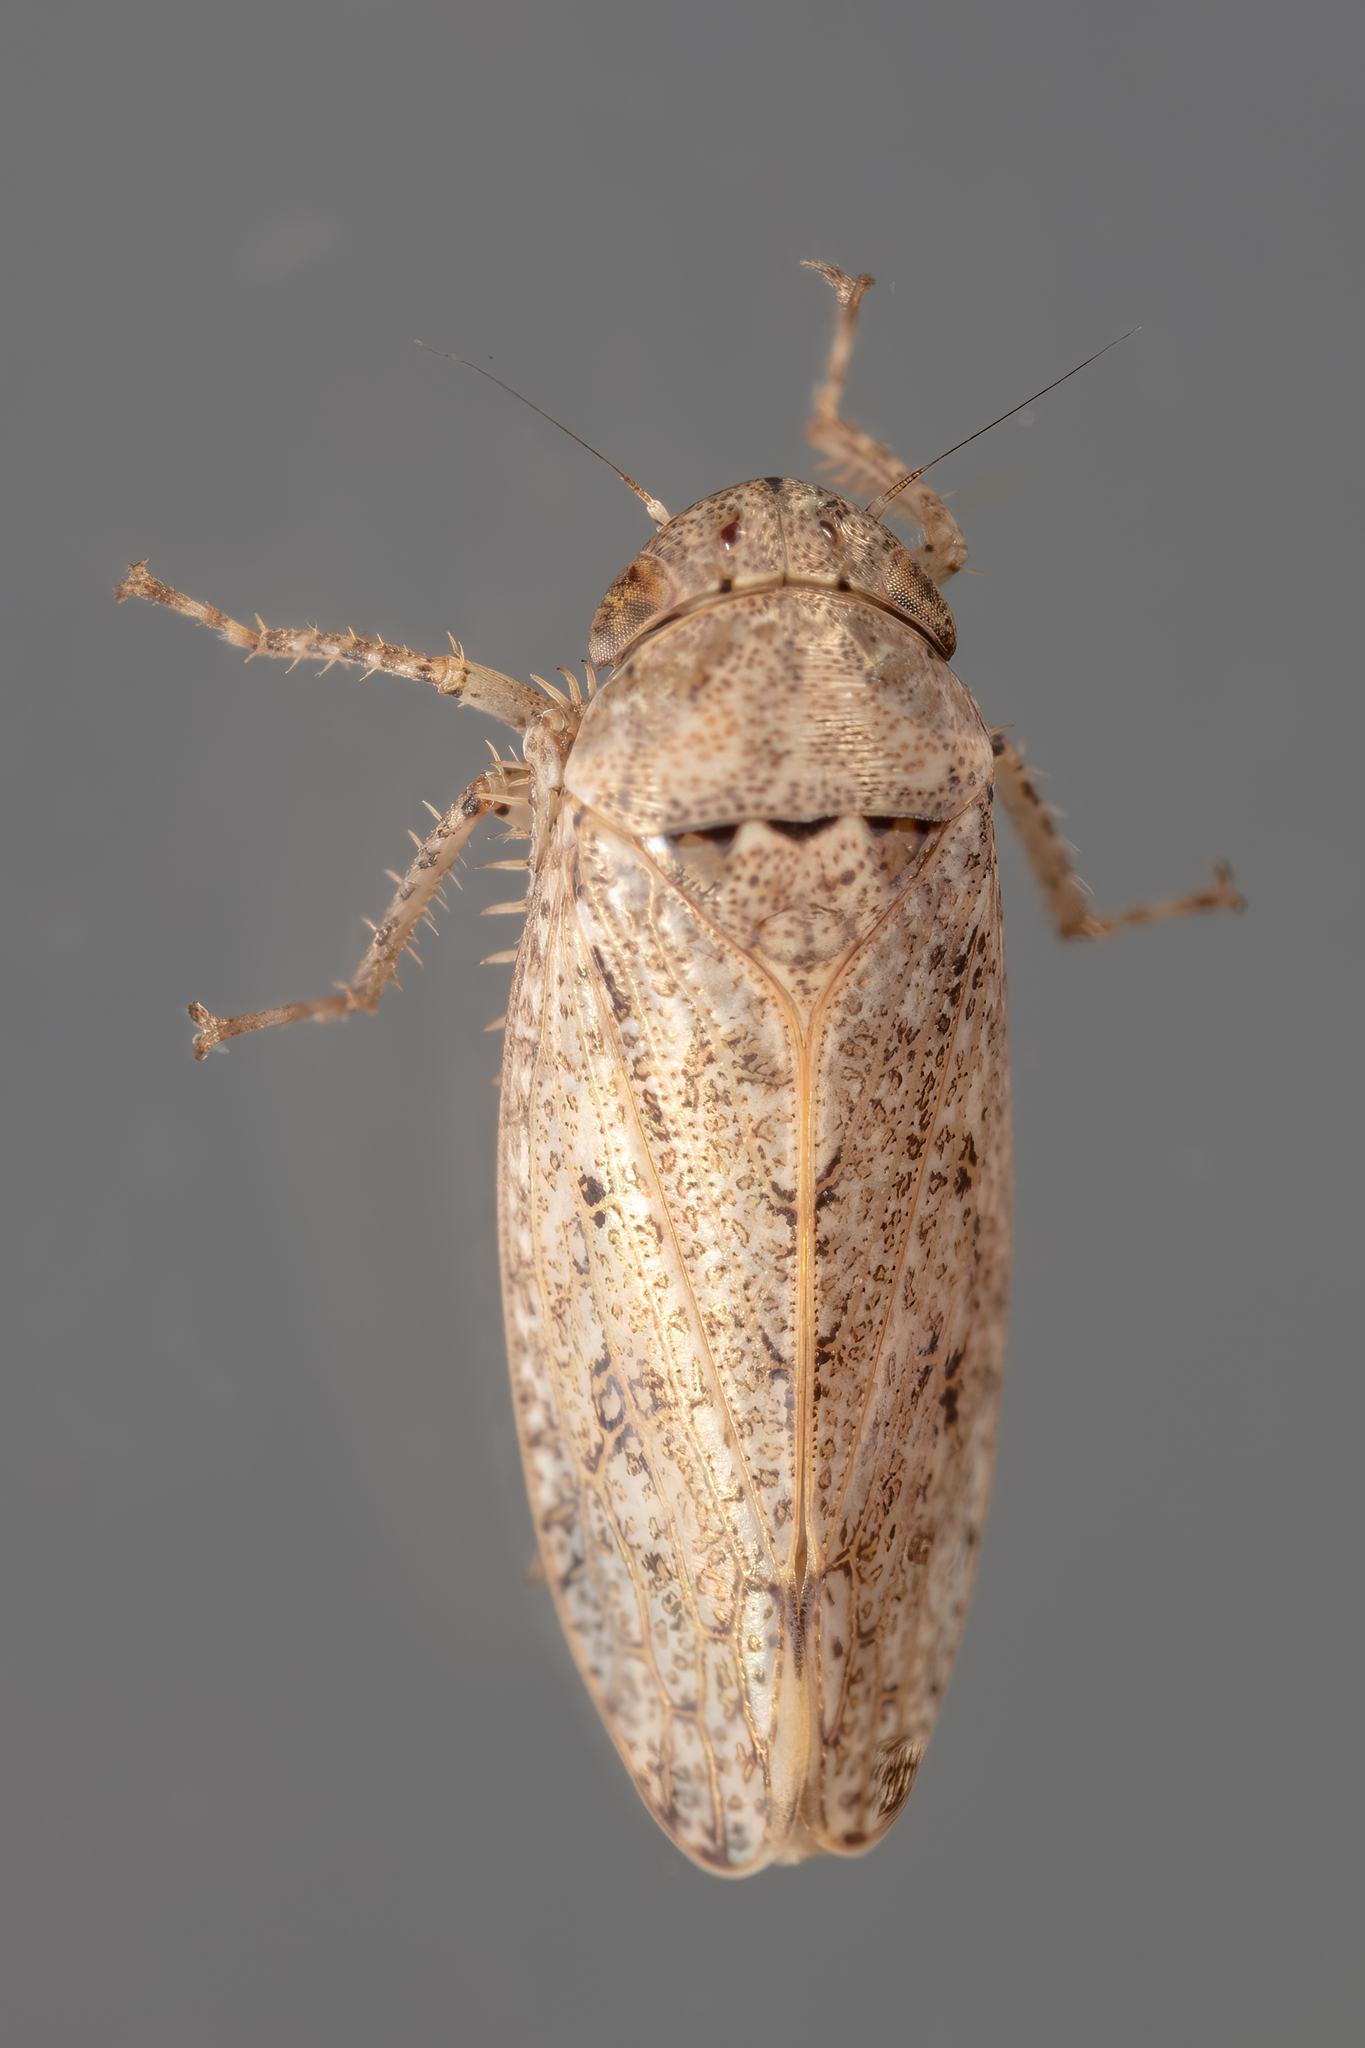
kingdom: Animalia
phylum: Arthropoda
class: Insecta
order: Hemiptera
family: Cicadellidae
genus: Curtara
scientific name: Curtara insularis
